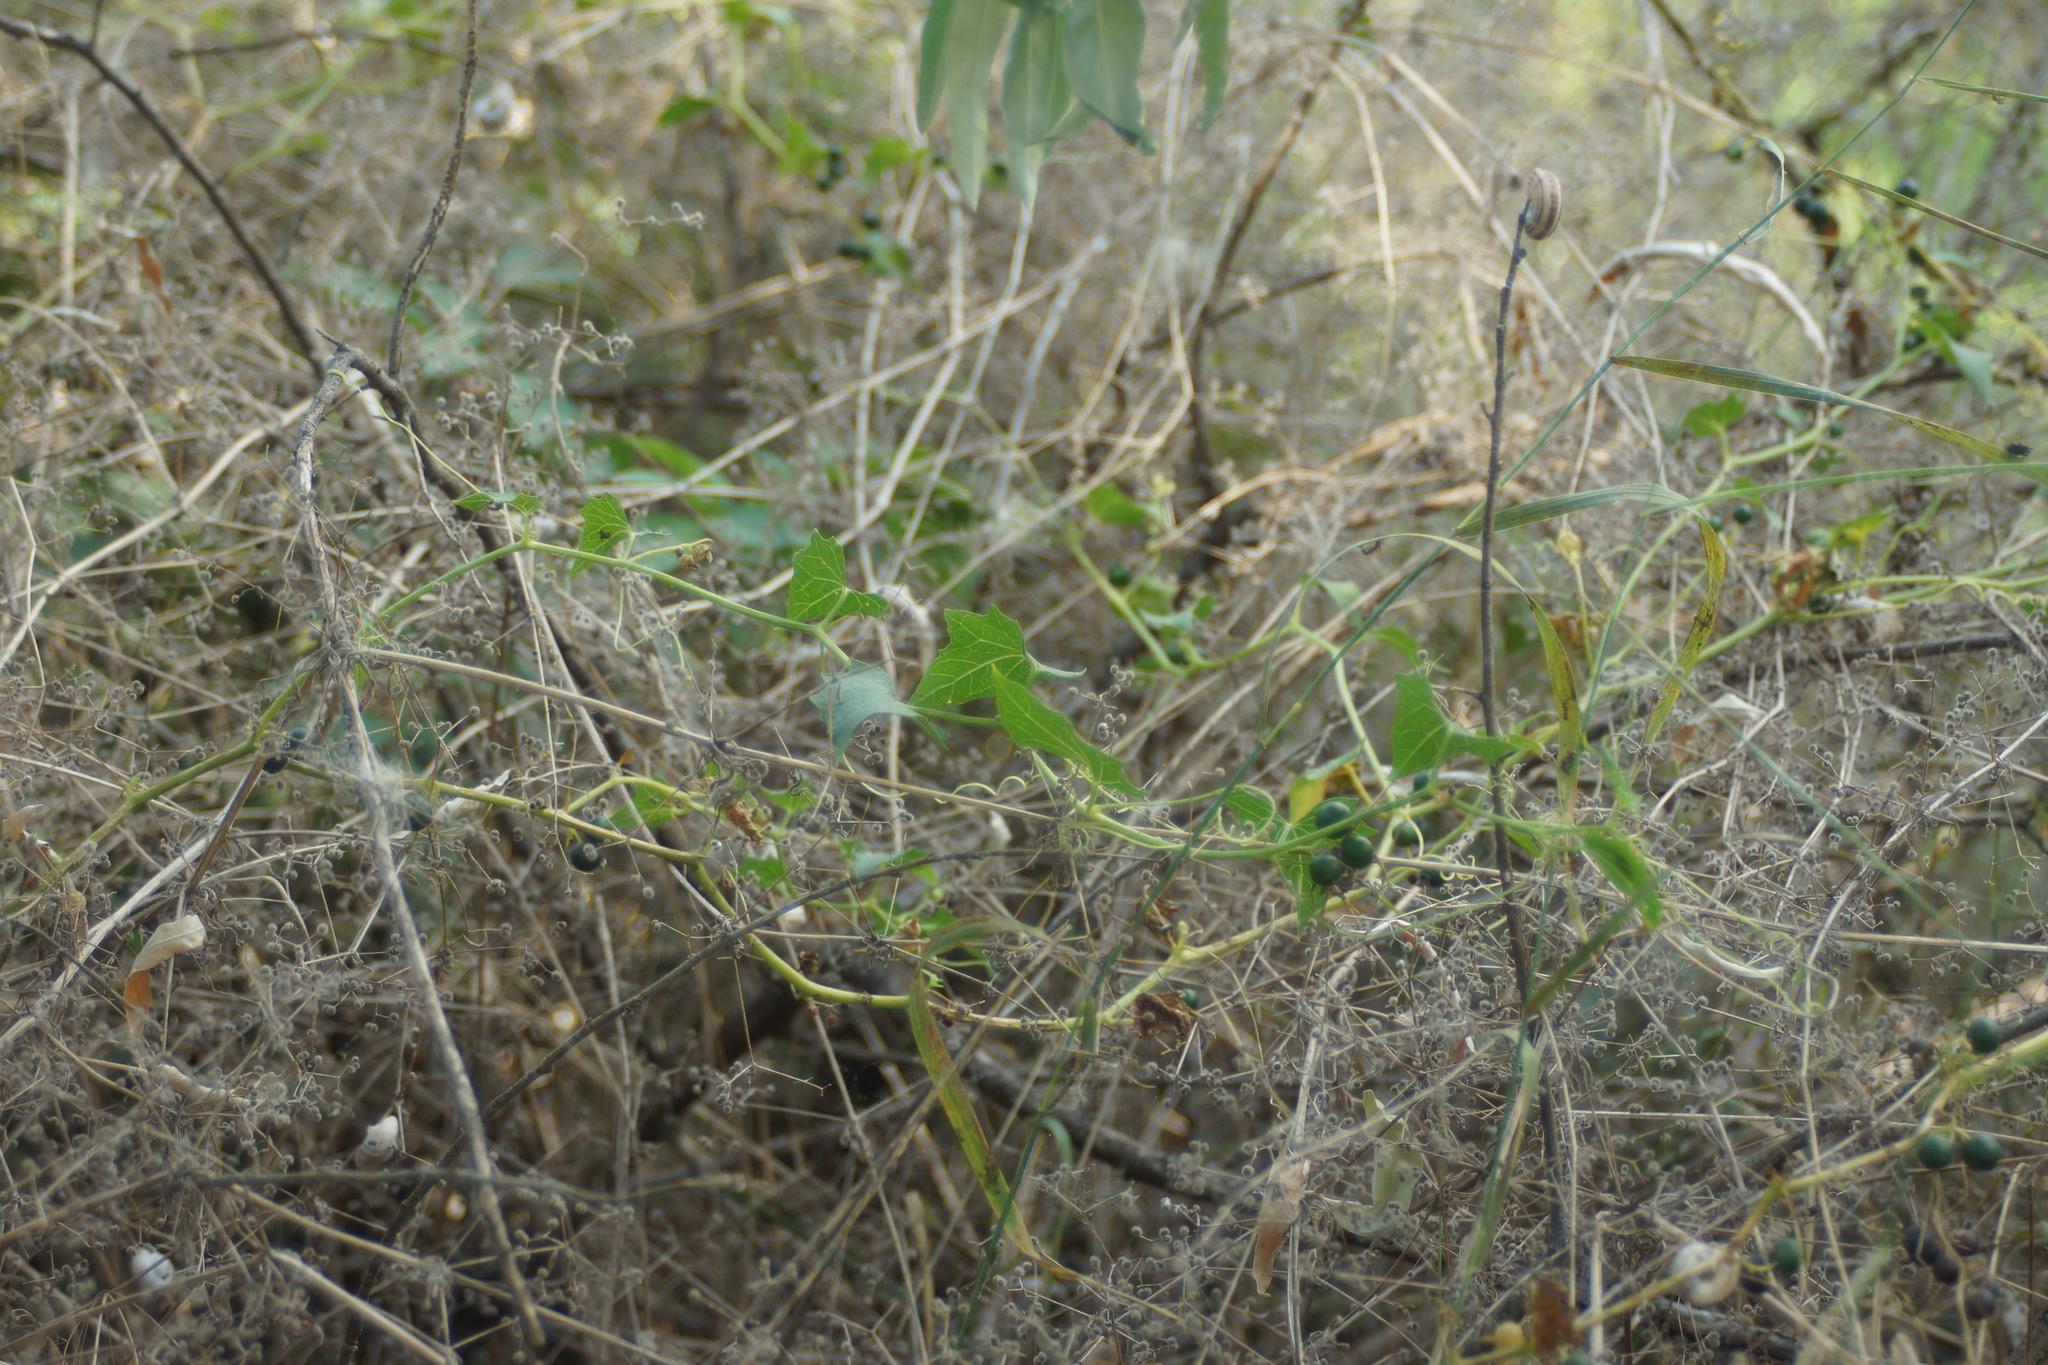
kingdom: Plantae
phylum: Tracheophyta
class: Magnoliopsida
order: Cucurbitales
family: Cucurbitaceae
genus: Bryonia
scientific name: Bryonia alba
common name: White bryony
